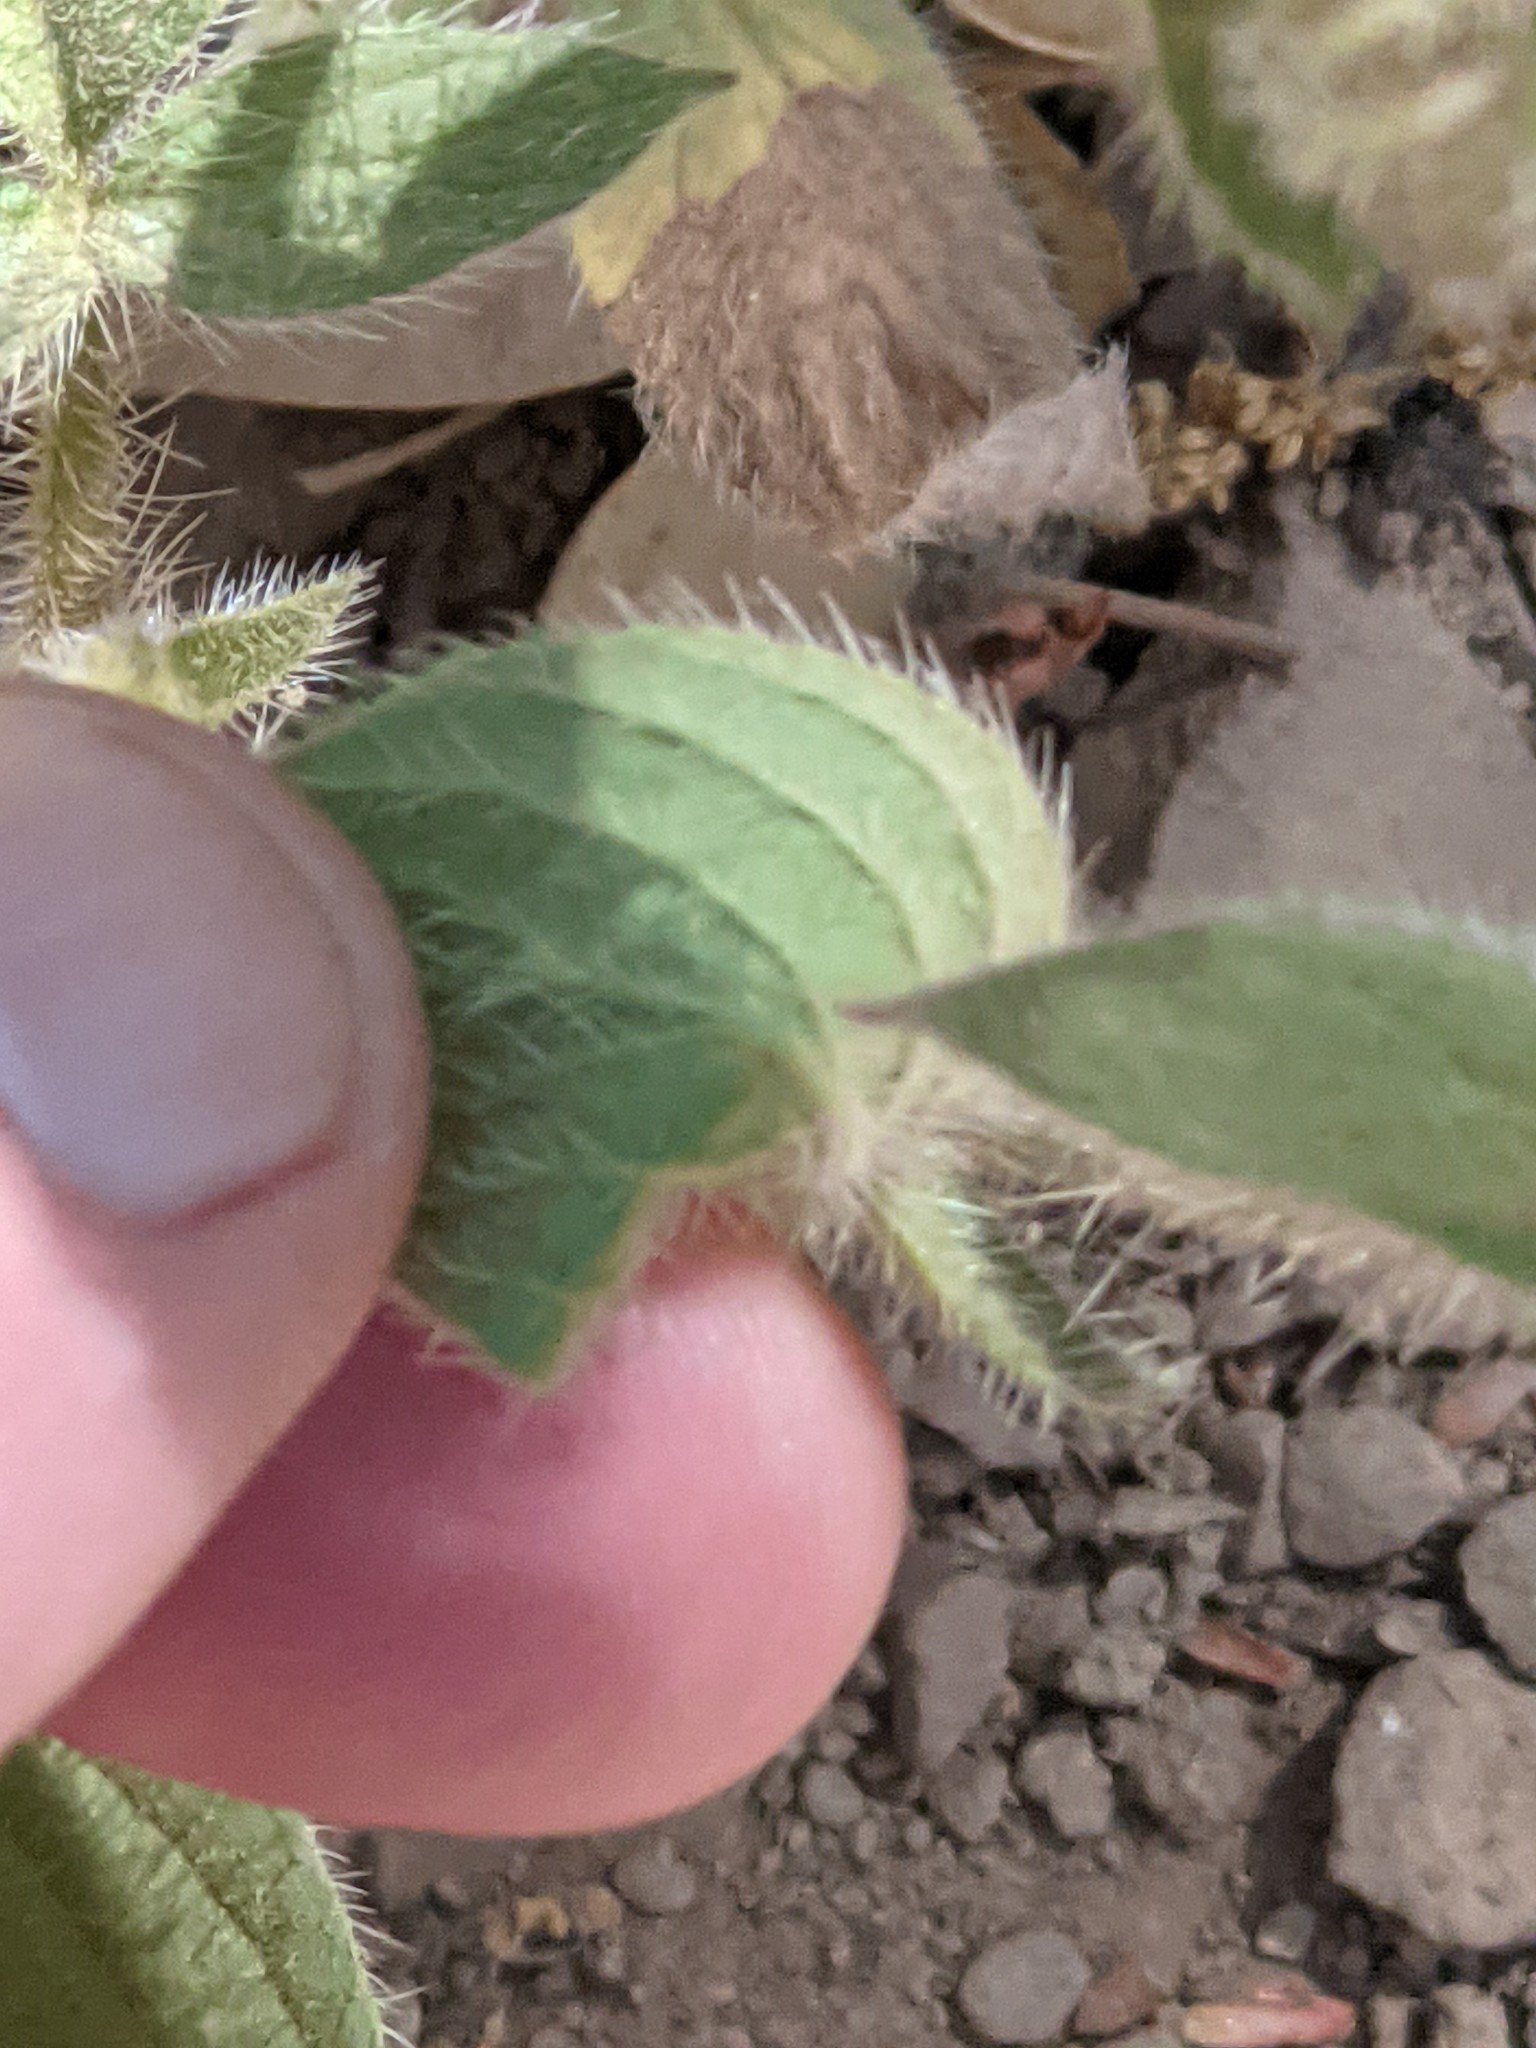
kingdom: Plantae
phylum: Tracheophyta
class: Magnoliopsida
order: Boraginales
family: Hydrophyllaceae
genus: Phacelia
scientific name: Phacelia nemoralis
